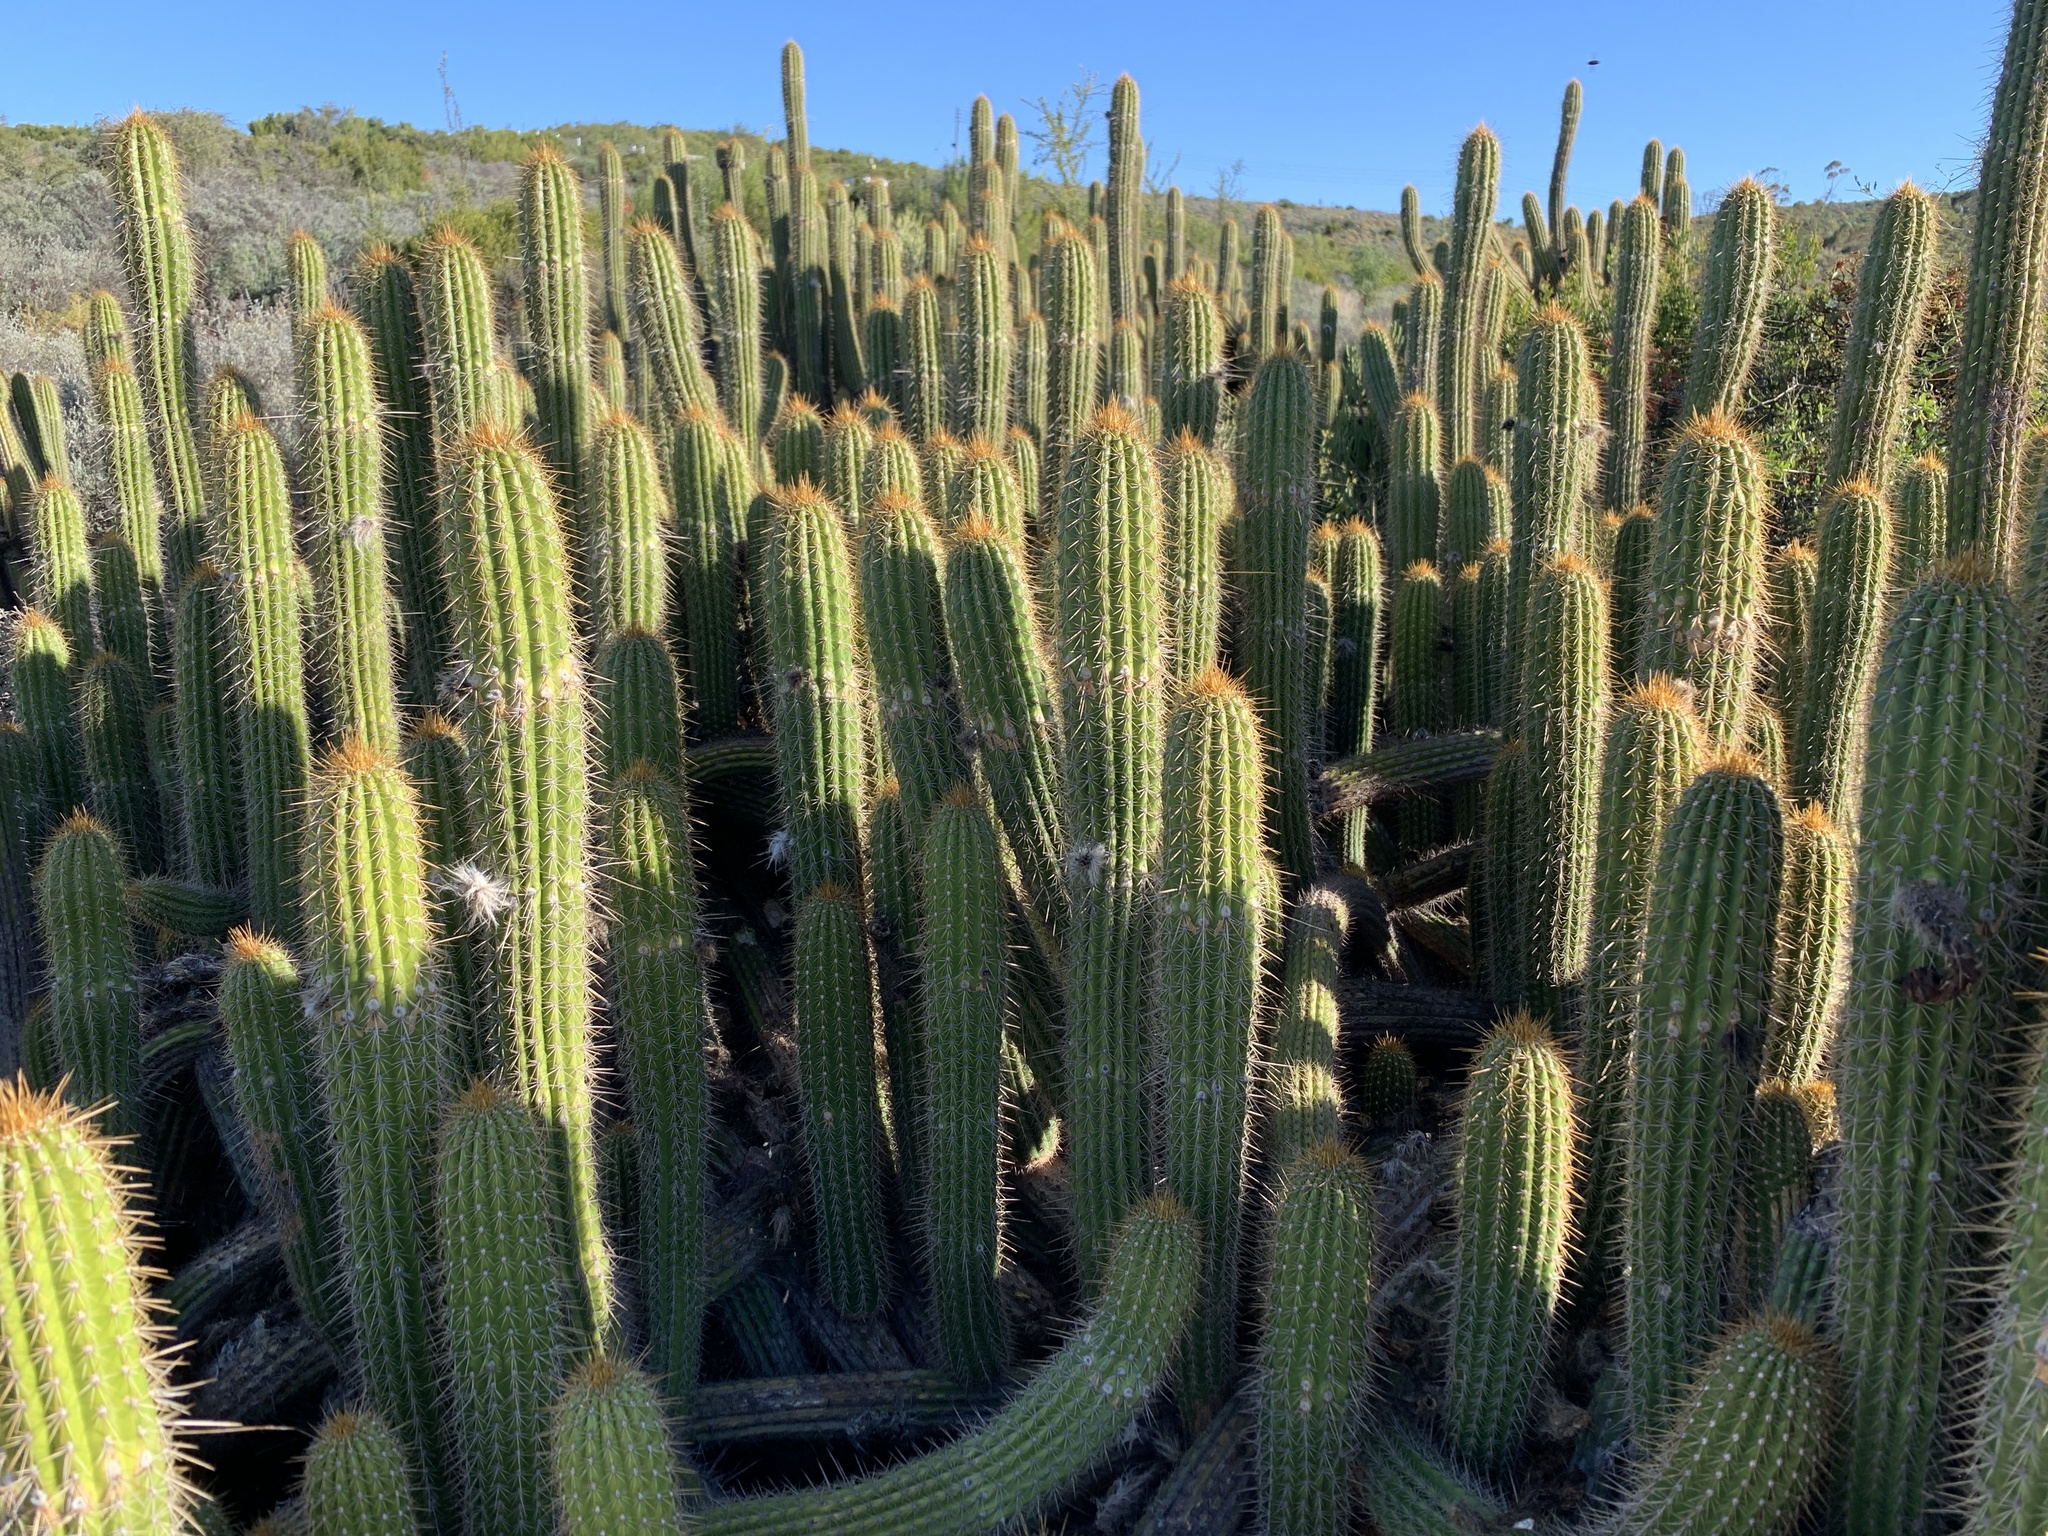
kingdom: Plantae
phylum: Tracheophyta
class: Magnoliopsida
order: Caryophyllales
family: Cactaceae
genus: Soehrensia
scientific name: Soehrensia spachiana
